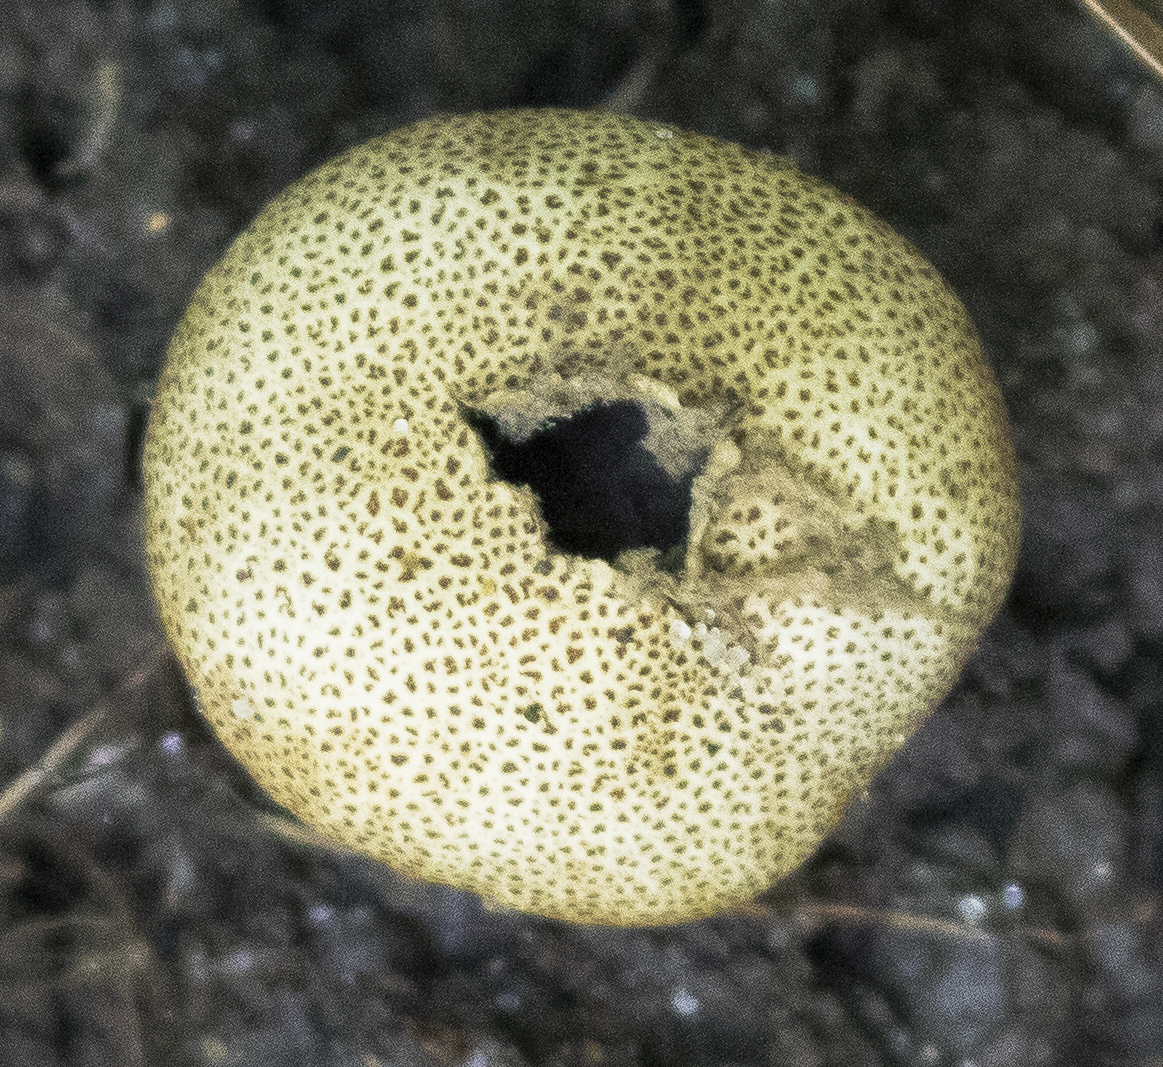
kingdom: Fungi
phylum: Basidiomycota
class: Agaricomycetes
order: Boletales
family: Sclerodermataceae
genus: Scleroderma
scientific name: Scleroderma citrinum
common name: Common earthball
